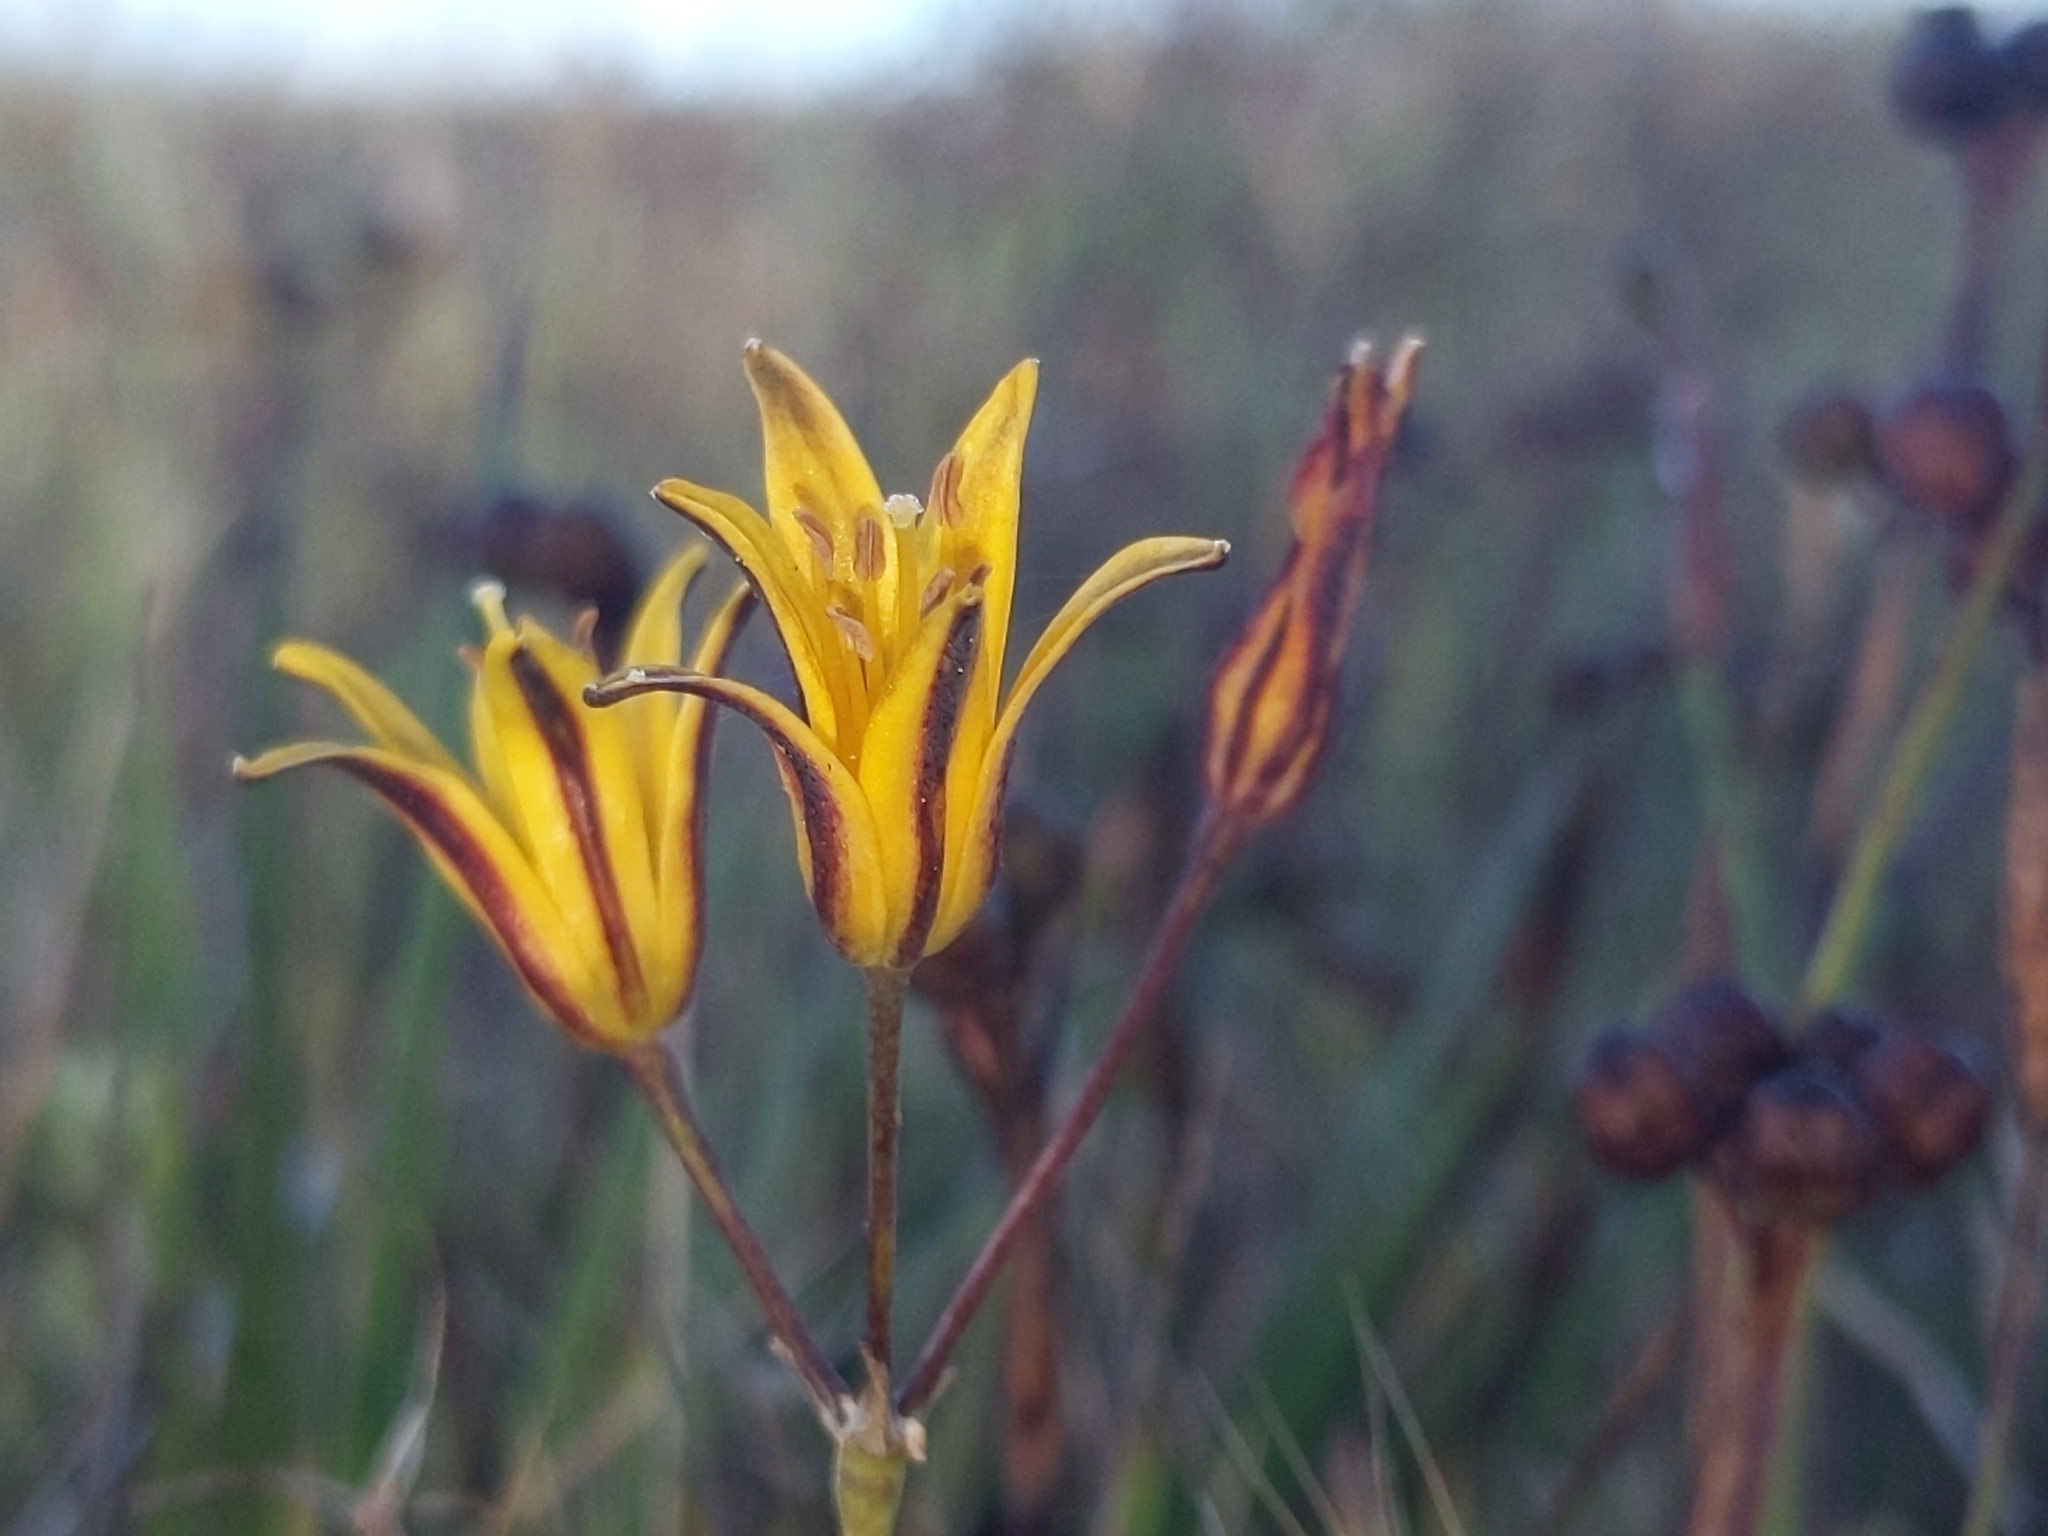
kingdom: Plantae
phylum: Tracheophyta
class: Liliopsida
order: Asparagales
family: Asparagaceae
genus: Bloomeria
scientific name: Bloomeria humilis
